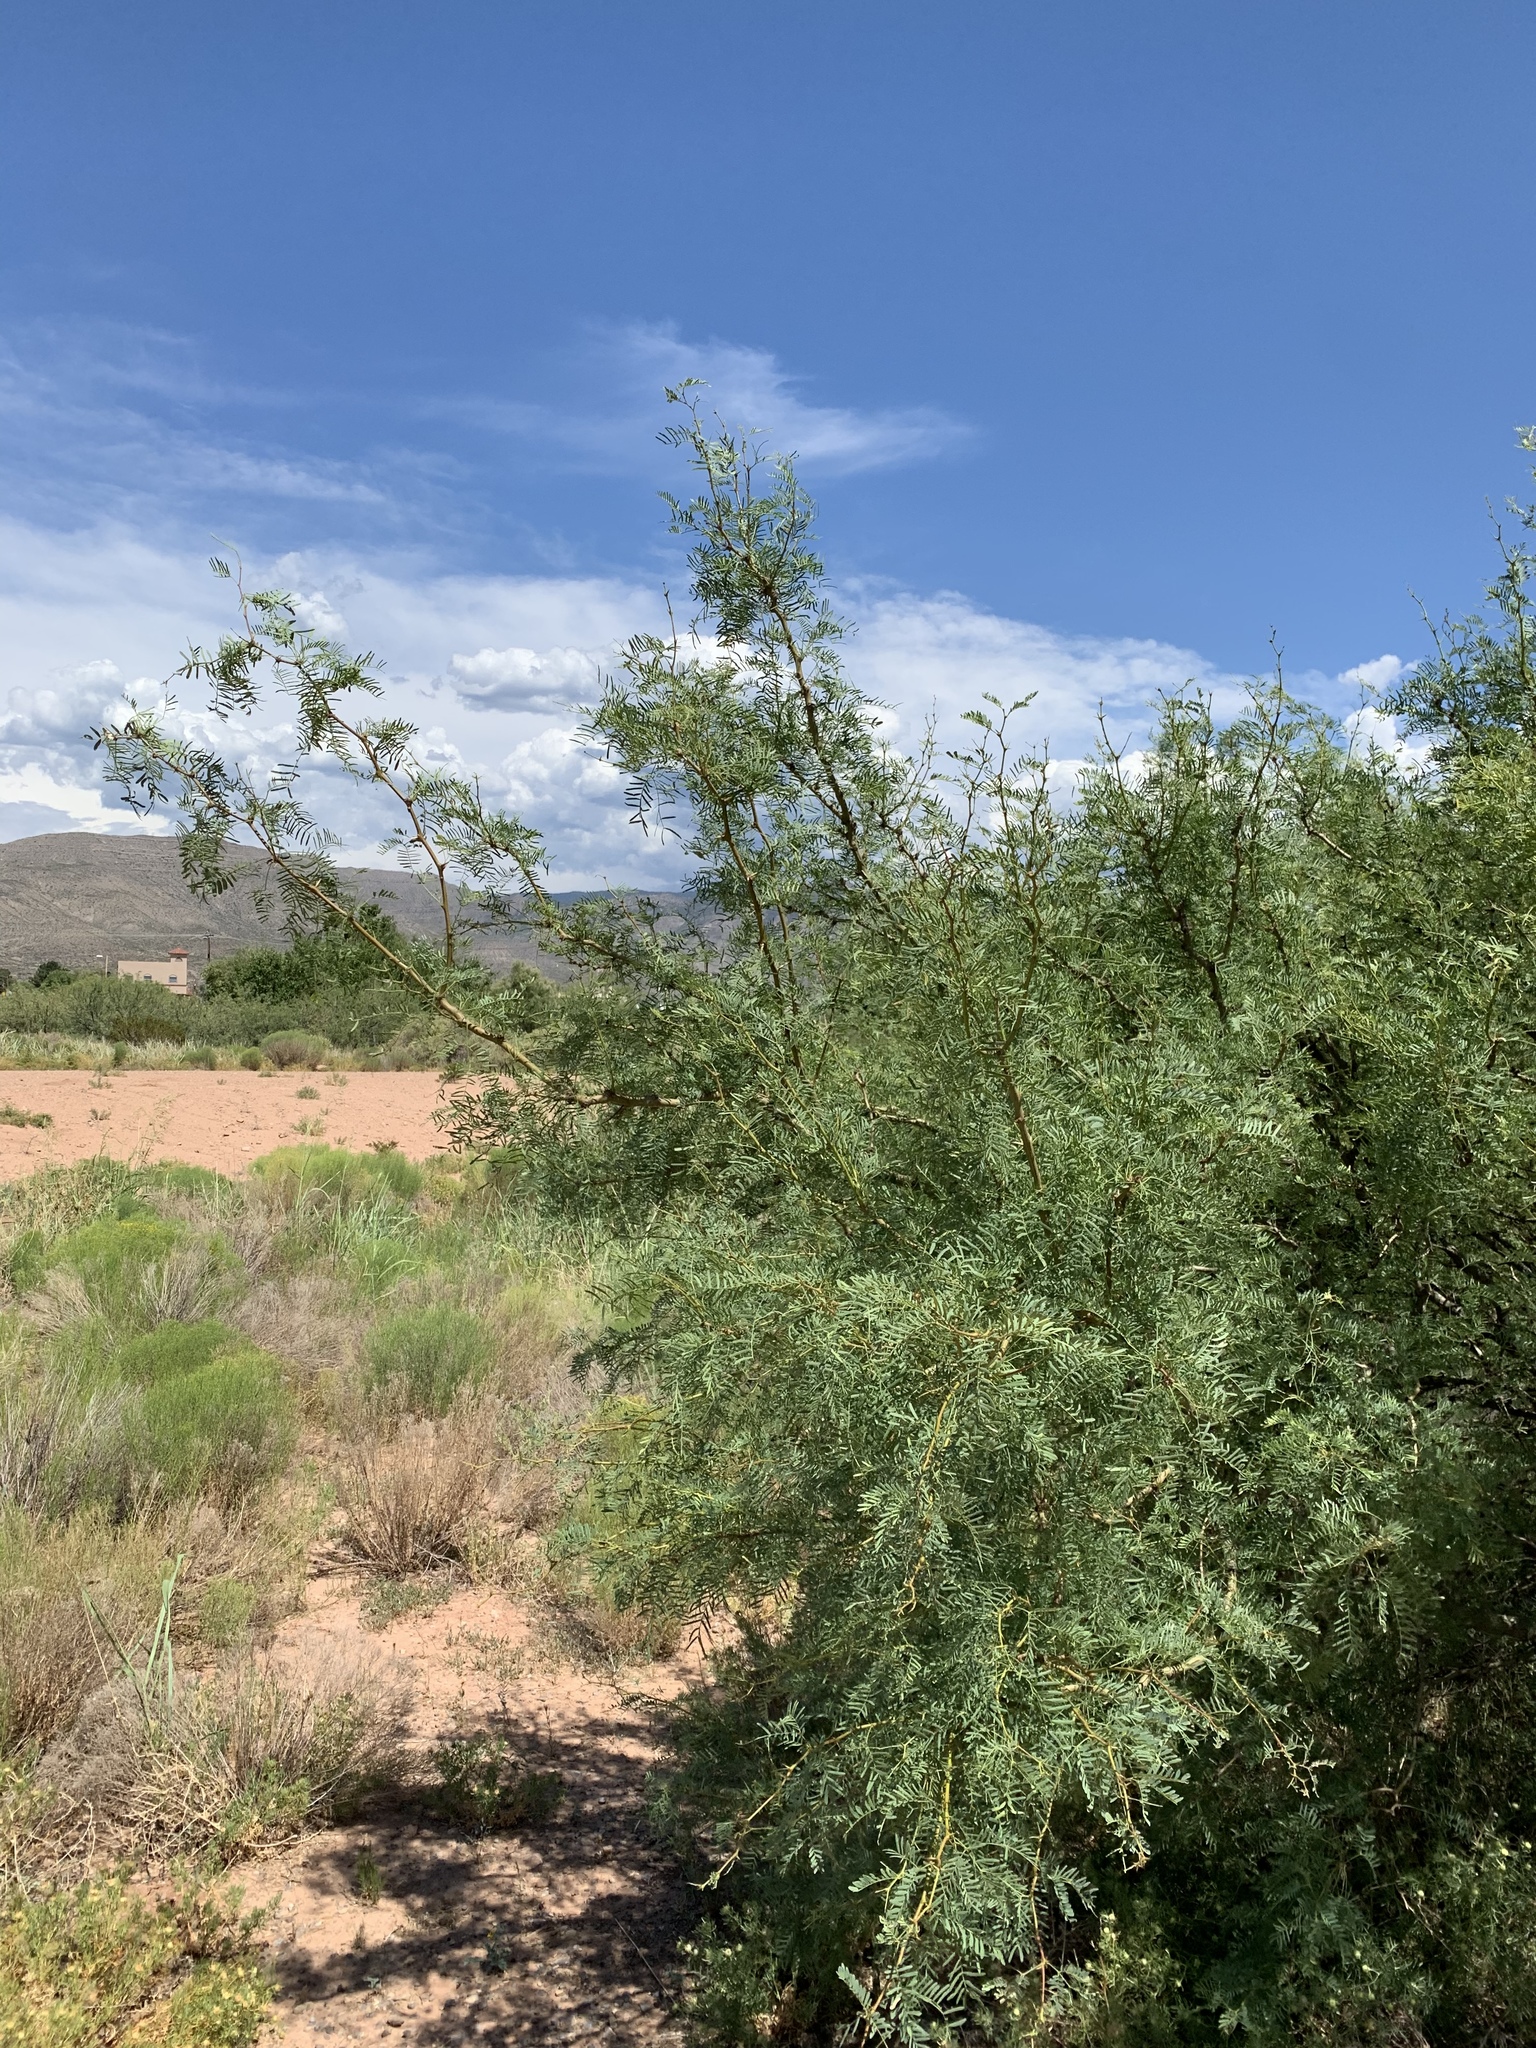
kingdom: Plantae
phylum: Tracheophyta
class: Magnoliopsida
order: Fabales
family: Fabaceae
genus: Prosopis
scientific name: Prosopis glandulosa
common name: Honey mesquite
